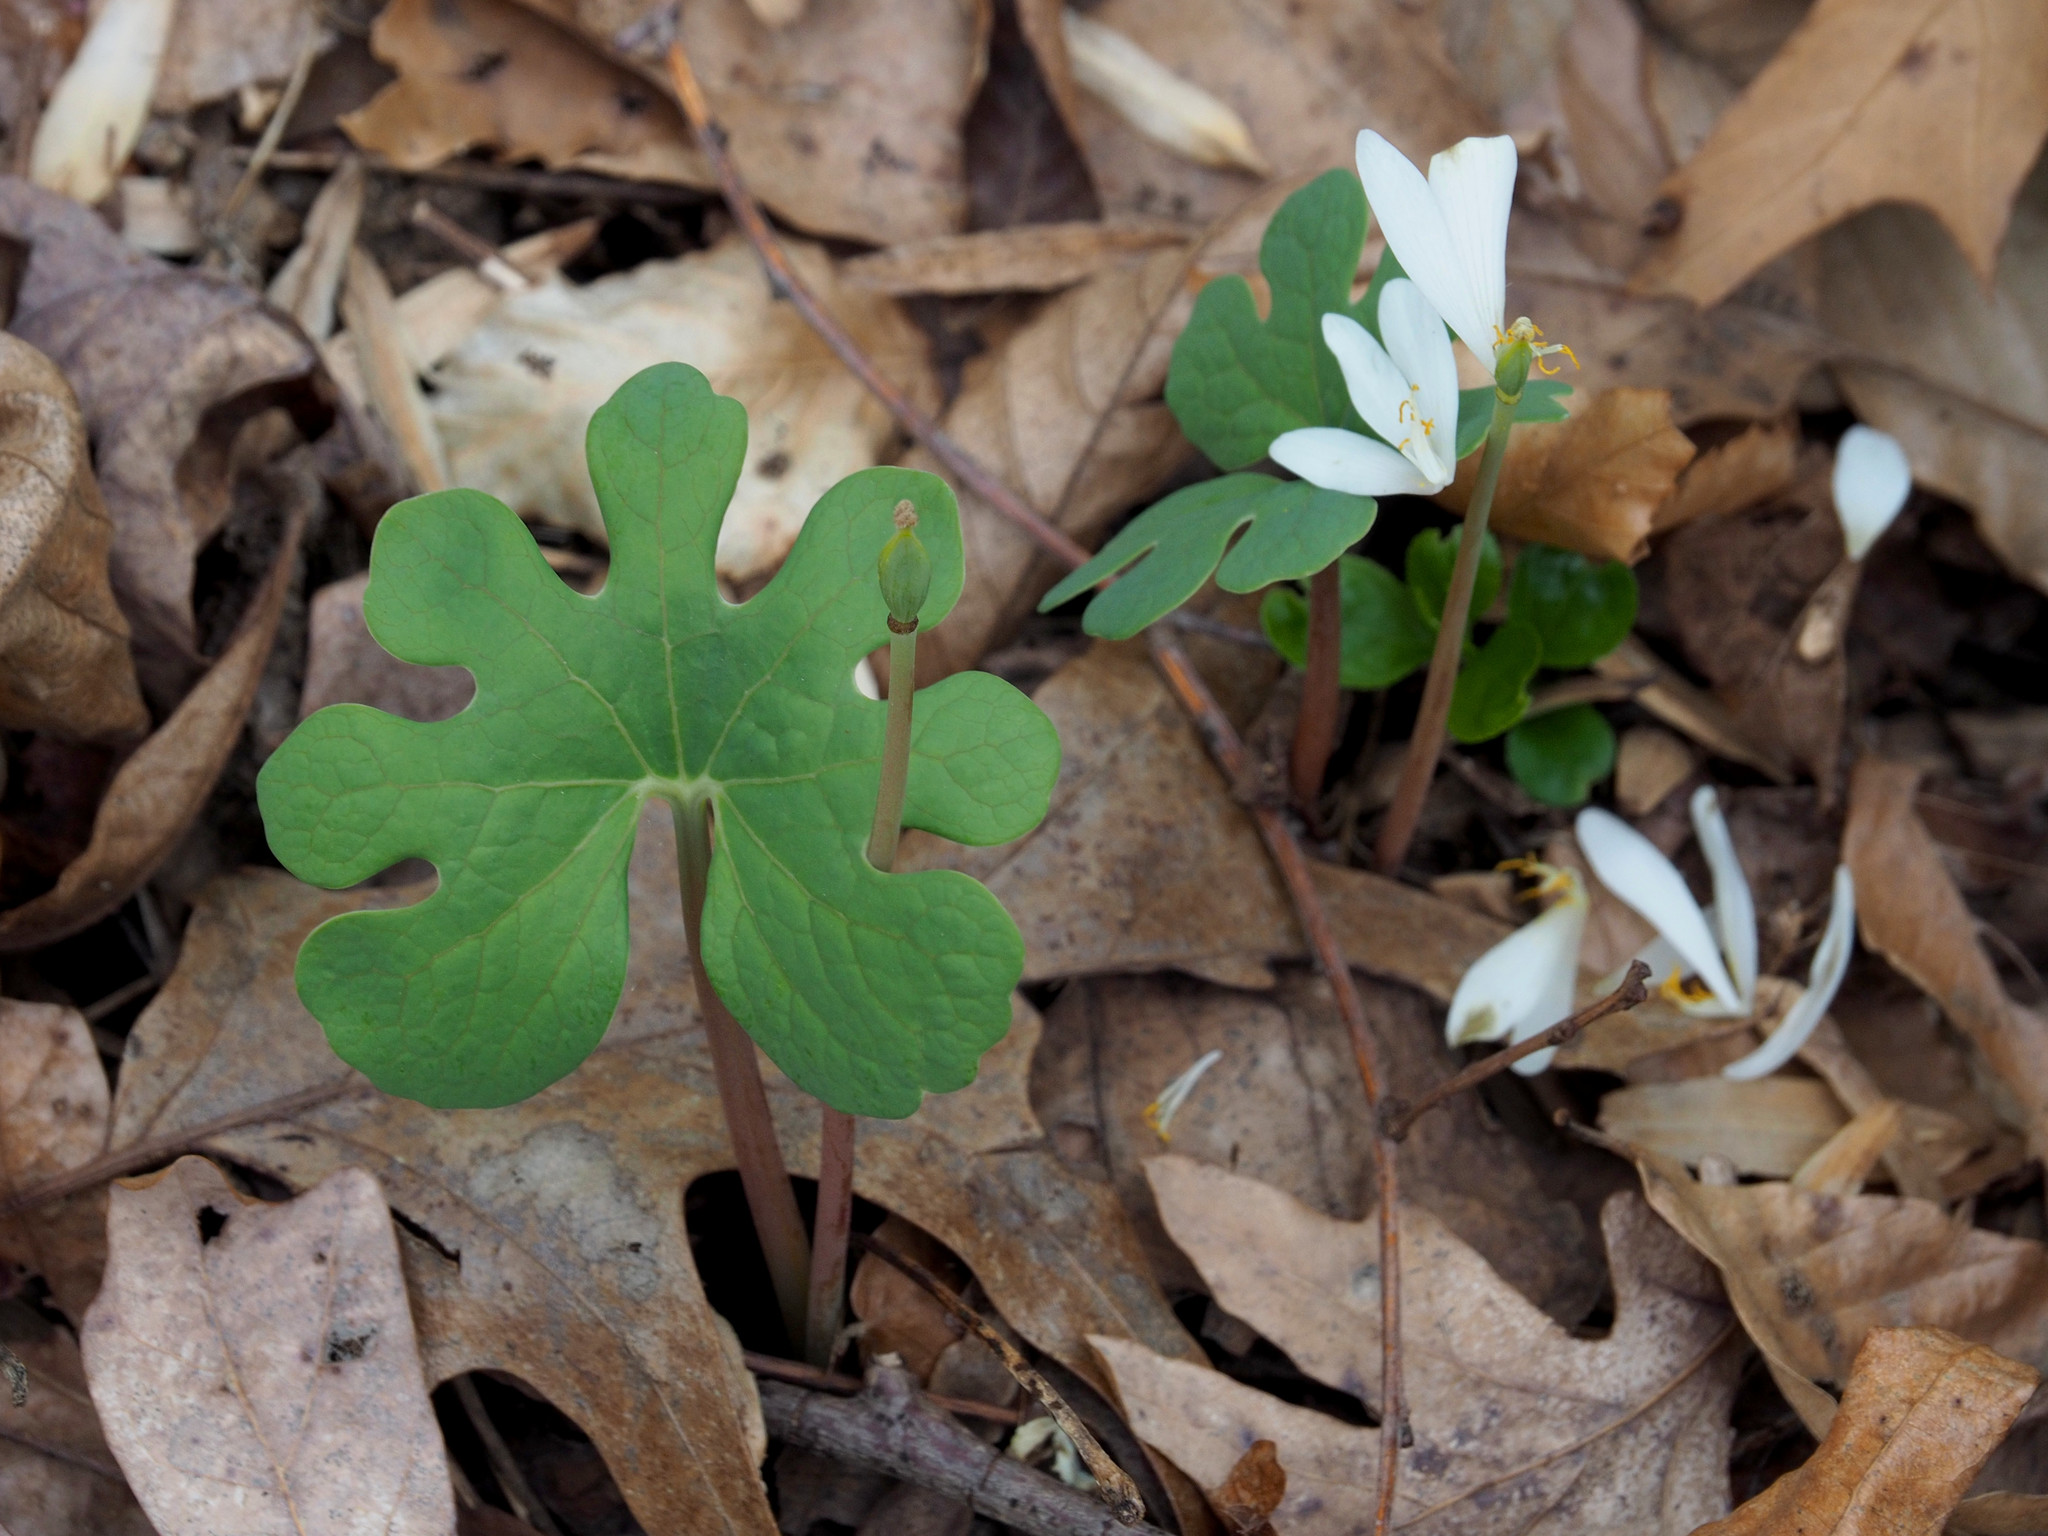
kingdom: Plantae
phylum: Tracheophyta
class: Magnoliopsida
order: Ranunculales
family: Papaveraceae
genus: Sanguinaria
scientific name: Sanguinaria canadensis
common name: Bloodroot
